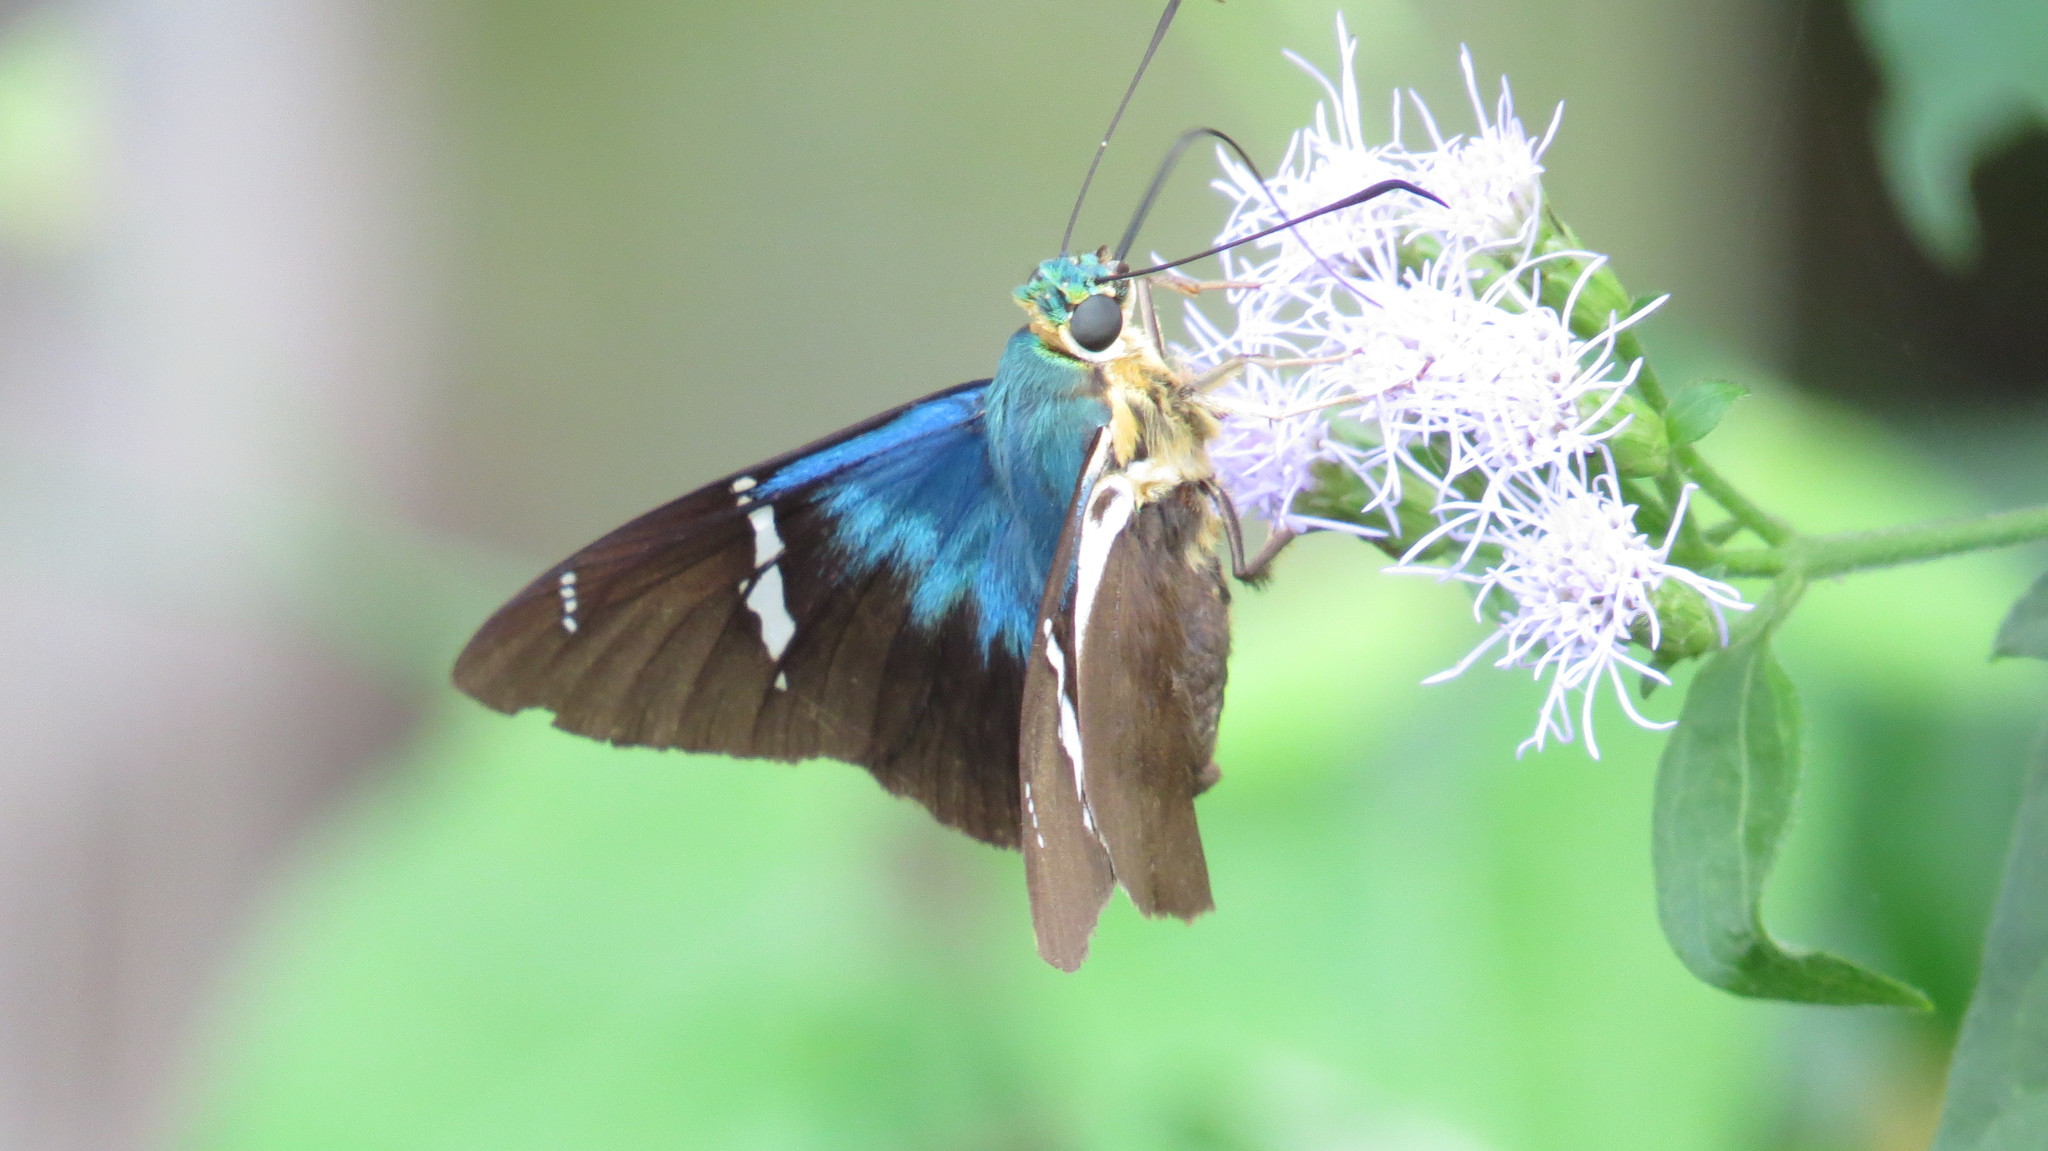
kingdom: Animalia
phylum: Arthropoda
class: Insecta
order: Lepidoptera
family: Hesperiidae
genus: Astraptes
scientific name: Astraptes fulgerator
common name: Two-barred flasher
